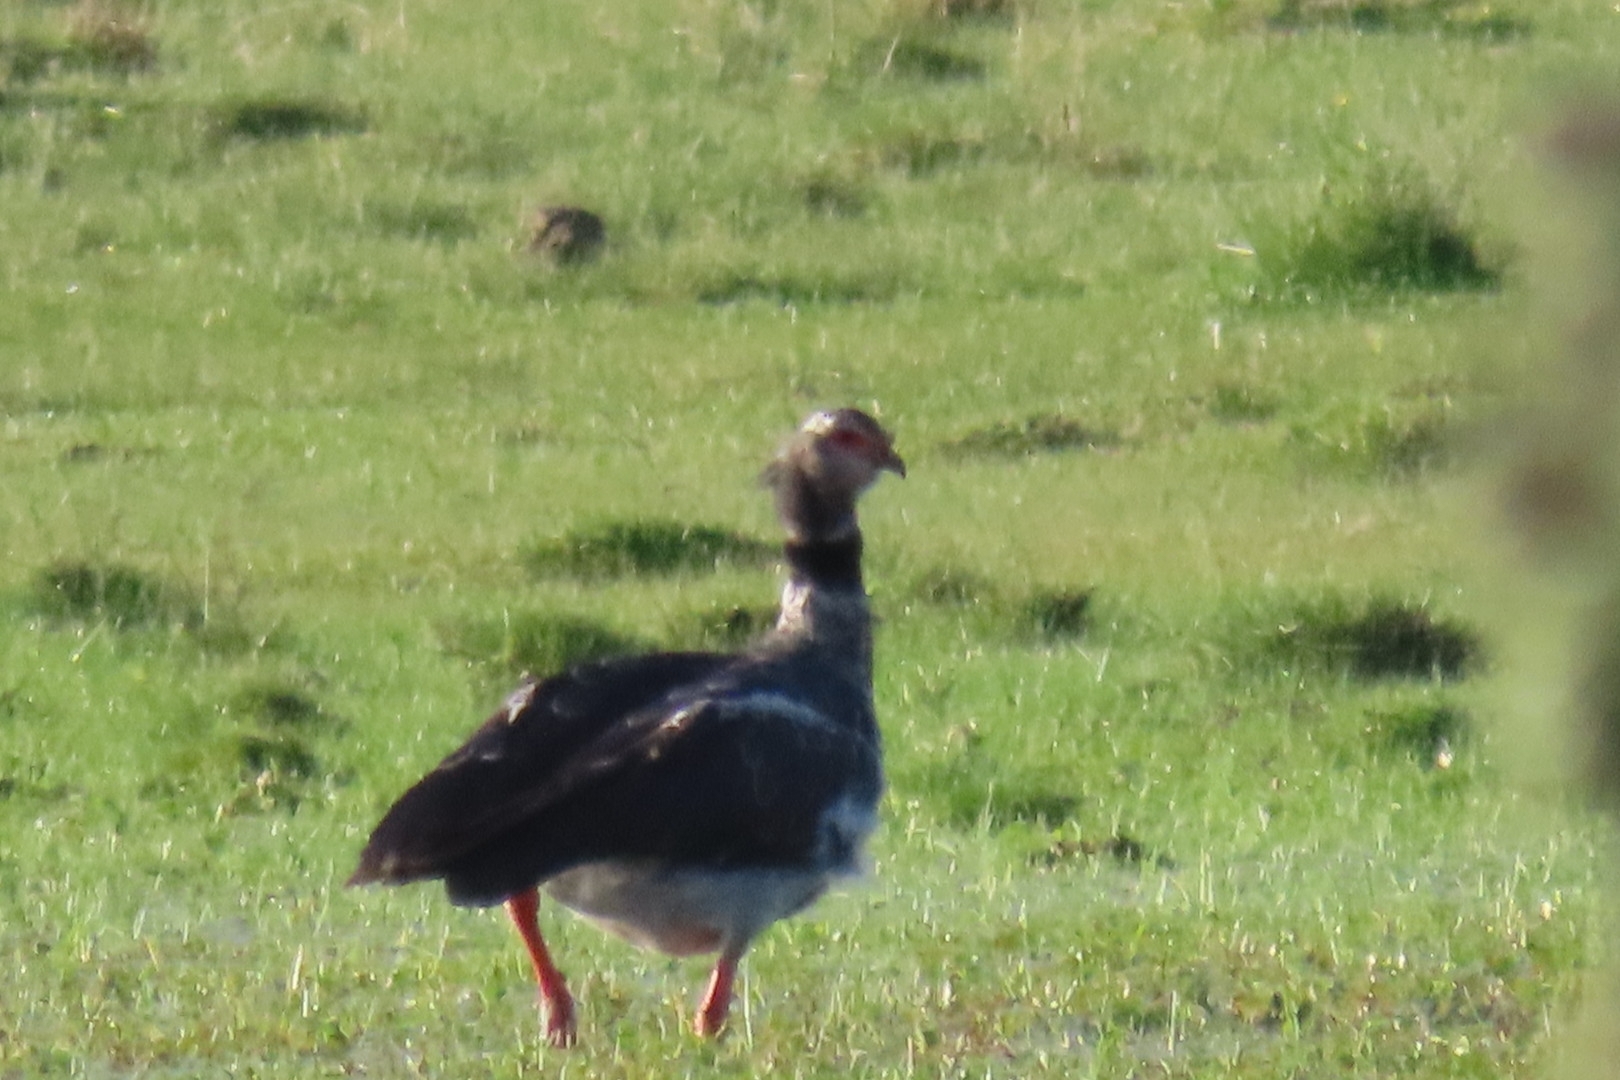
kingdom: Animalia
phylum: Chordata
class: Aves
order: Anseriformes
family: Anhimidae
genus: Chauna
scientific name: Chauna torquata
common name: Southern screamer
